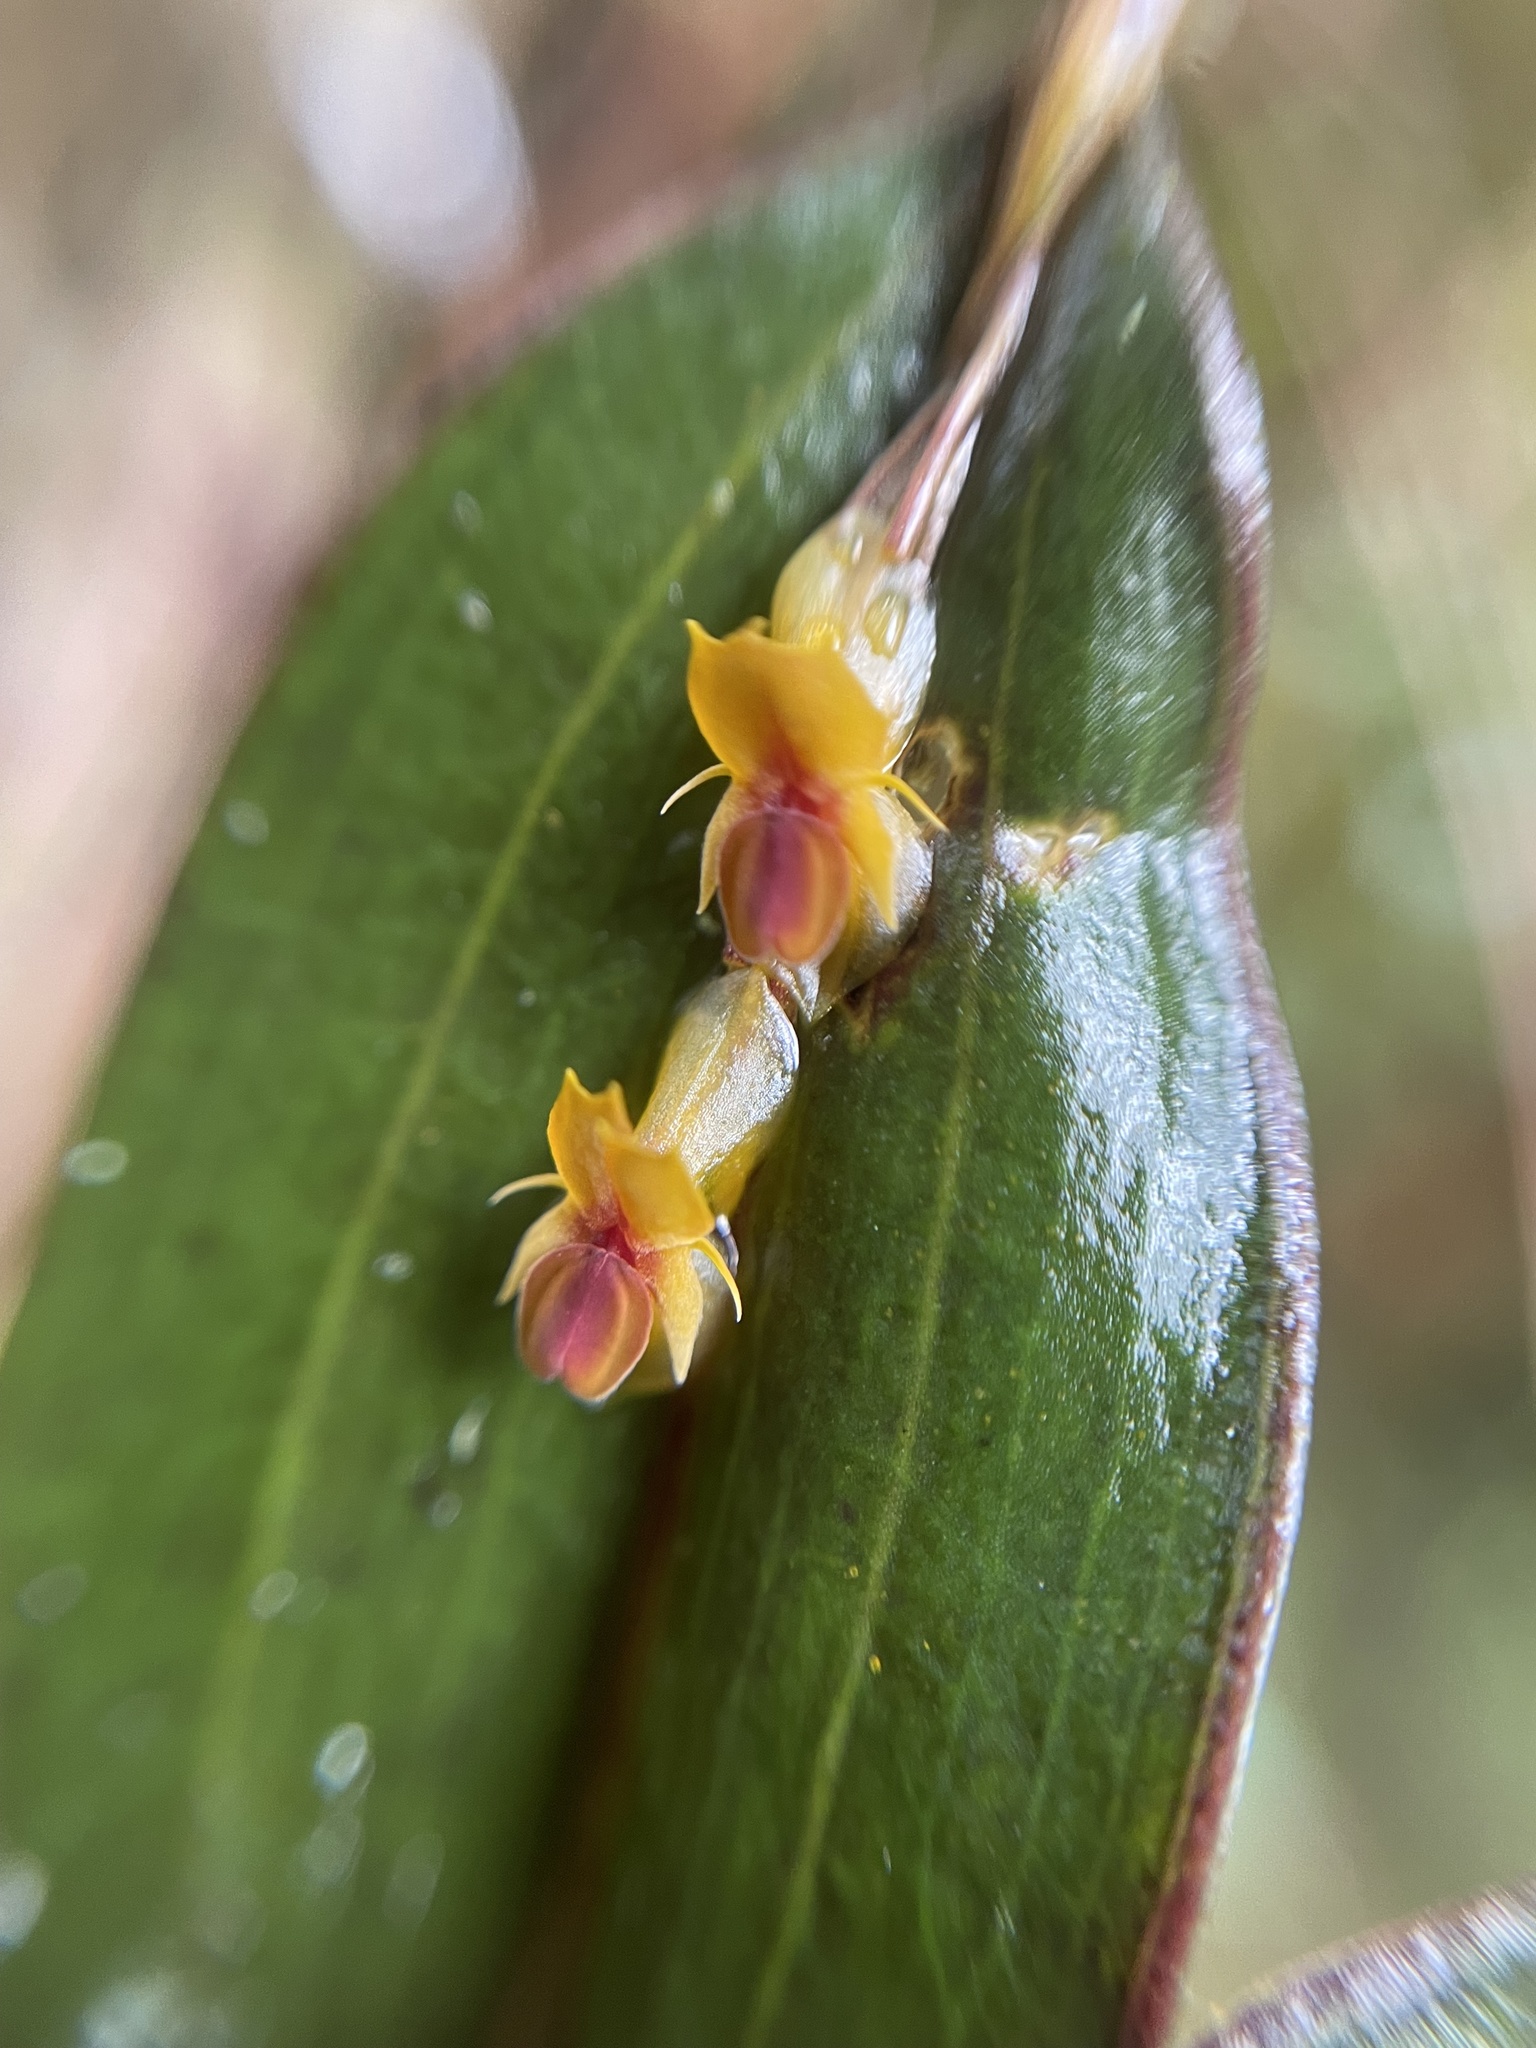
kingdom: Plantae
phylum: Tracheophyta
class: Liliopsida
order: Asparagales
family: Orchidaceae
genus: Lepanthes
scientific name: Lepanthes mucronata
